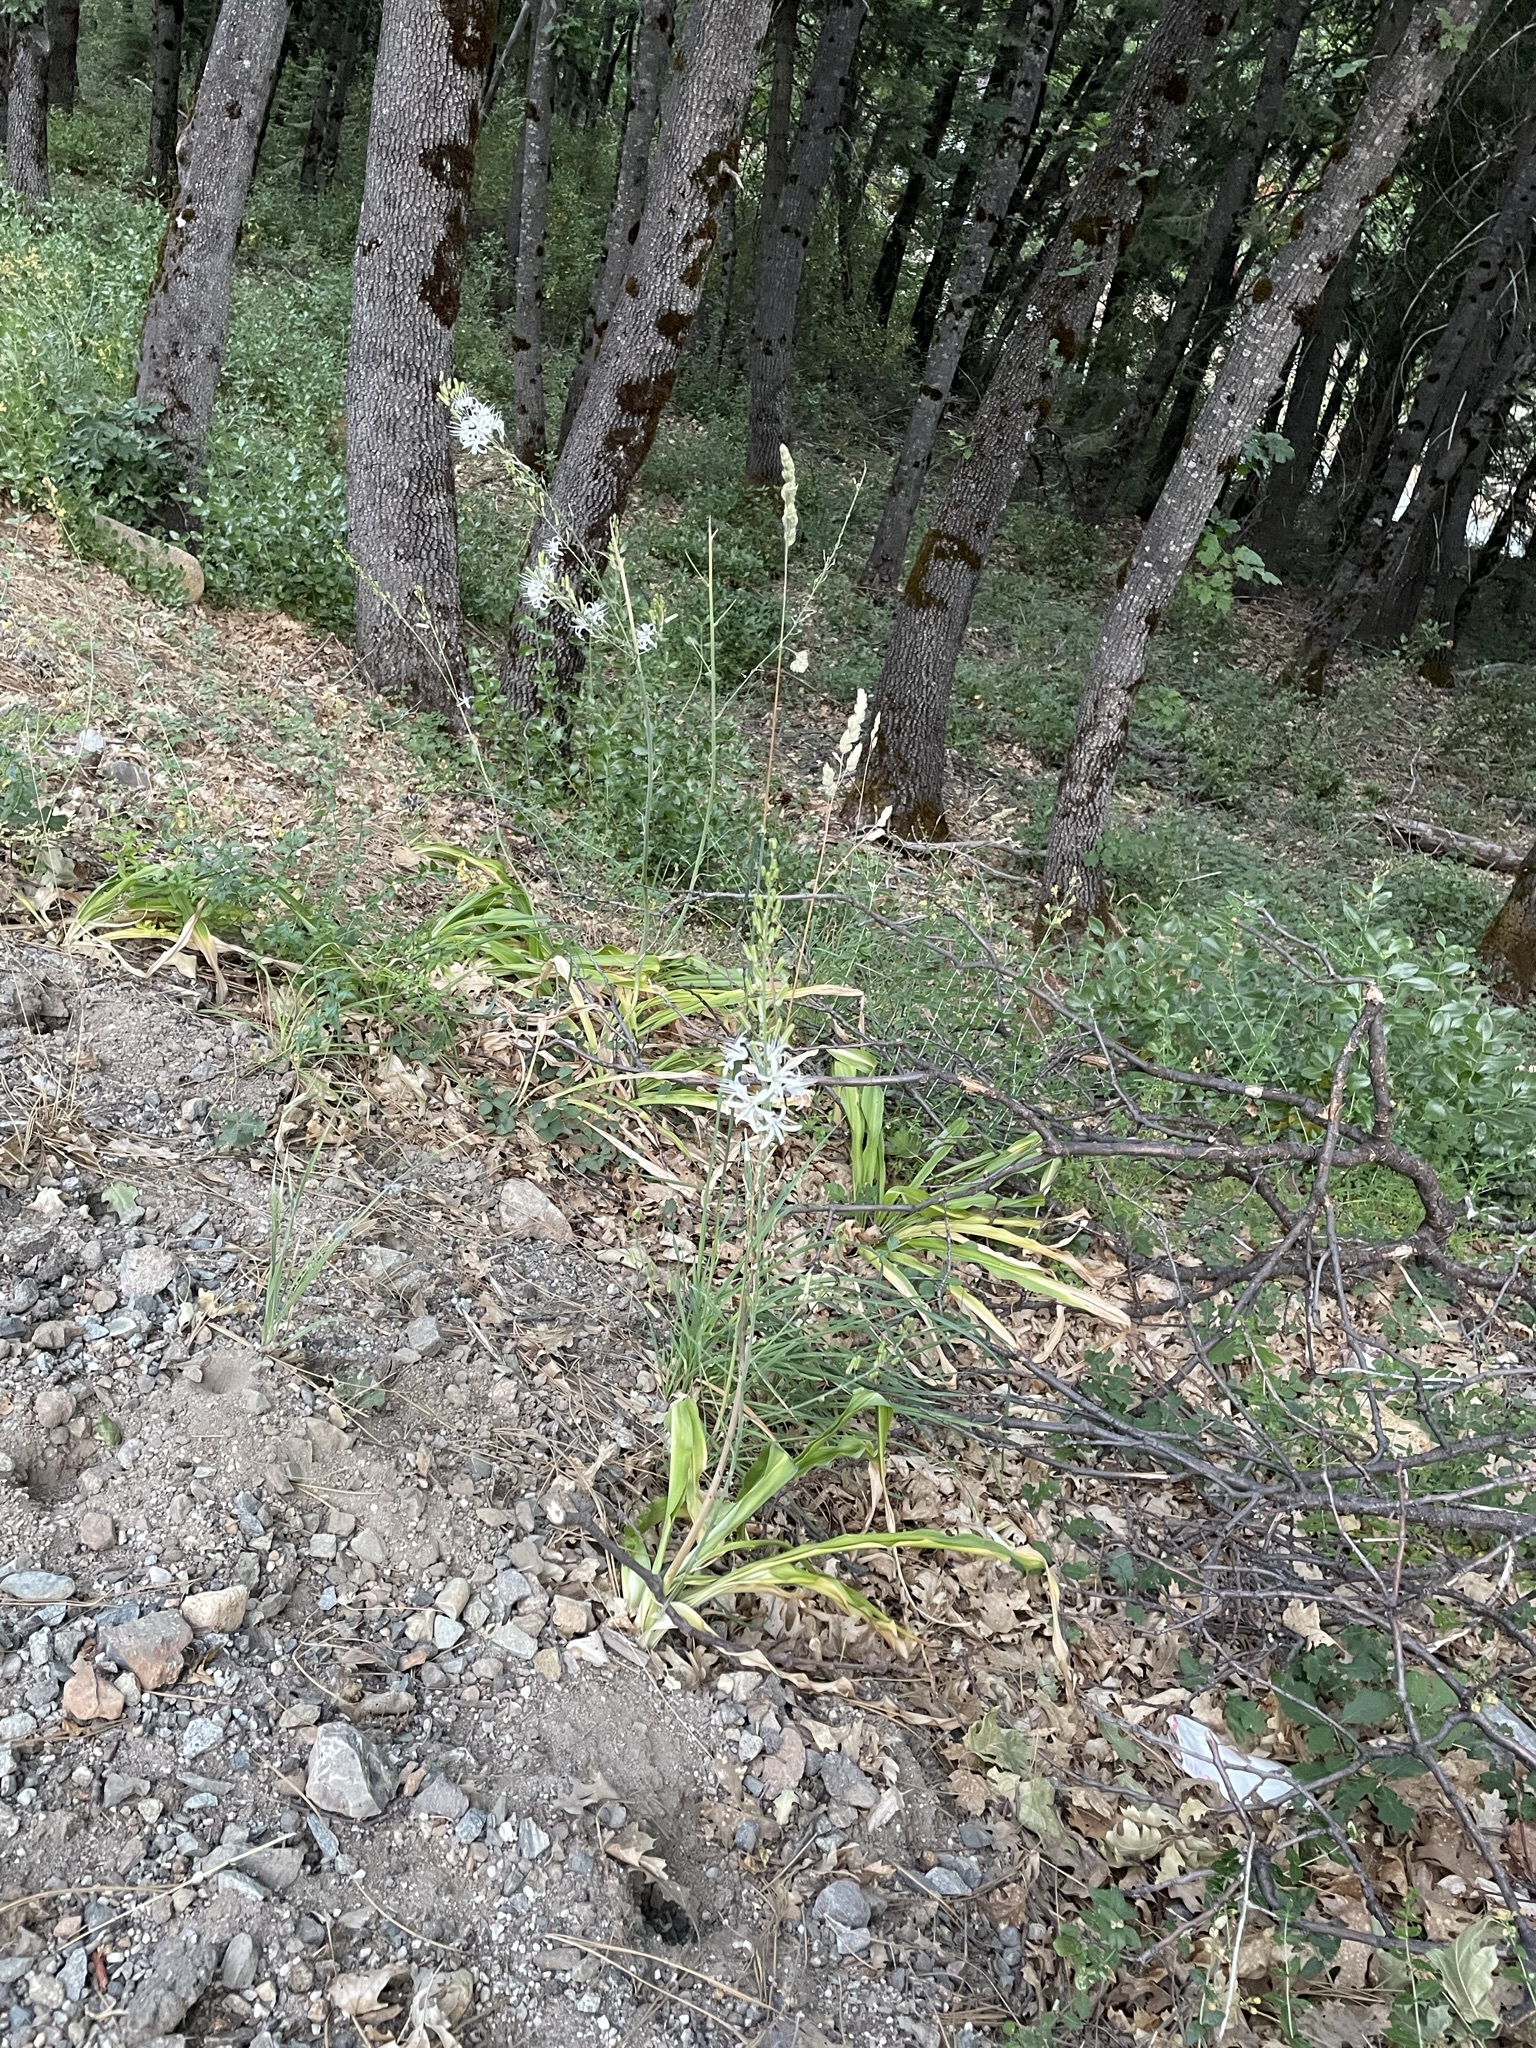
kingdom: Plantae
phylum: Tracheophyta
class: Liliopsida
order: Asparagales
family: Asparagaceae
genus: Chlorogalum
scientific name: Chlorogalum pomeridianum
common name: Amole
